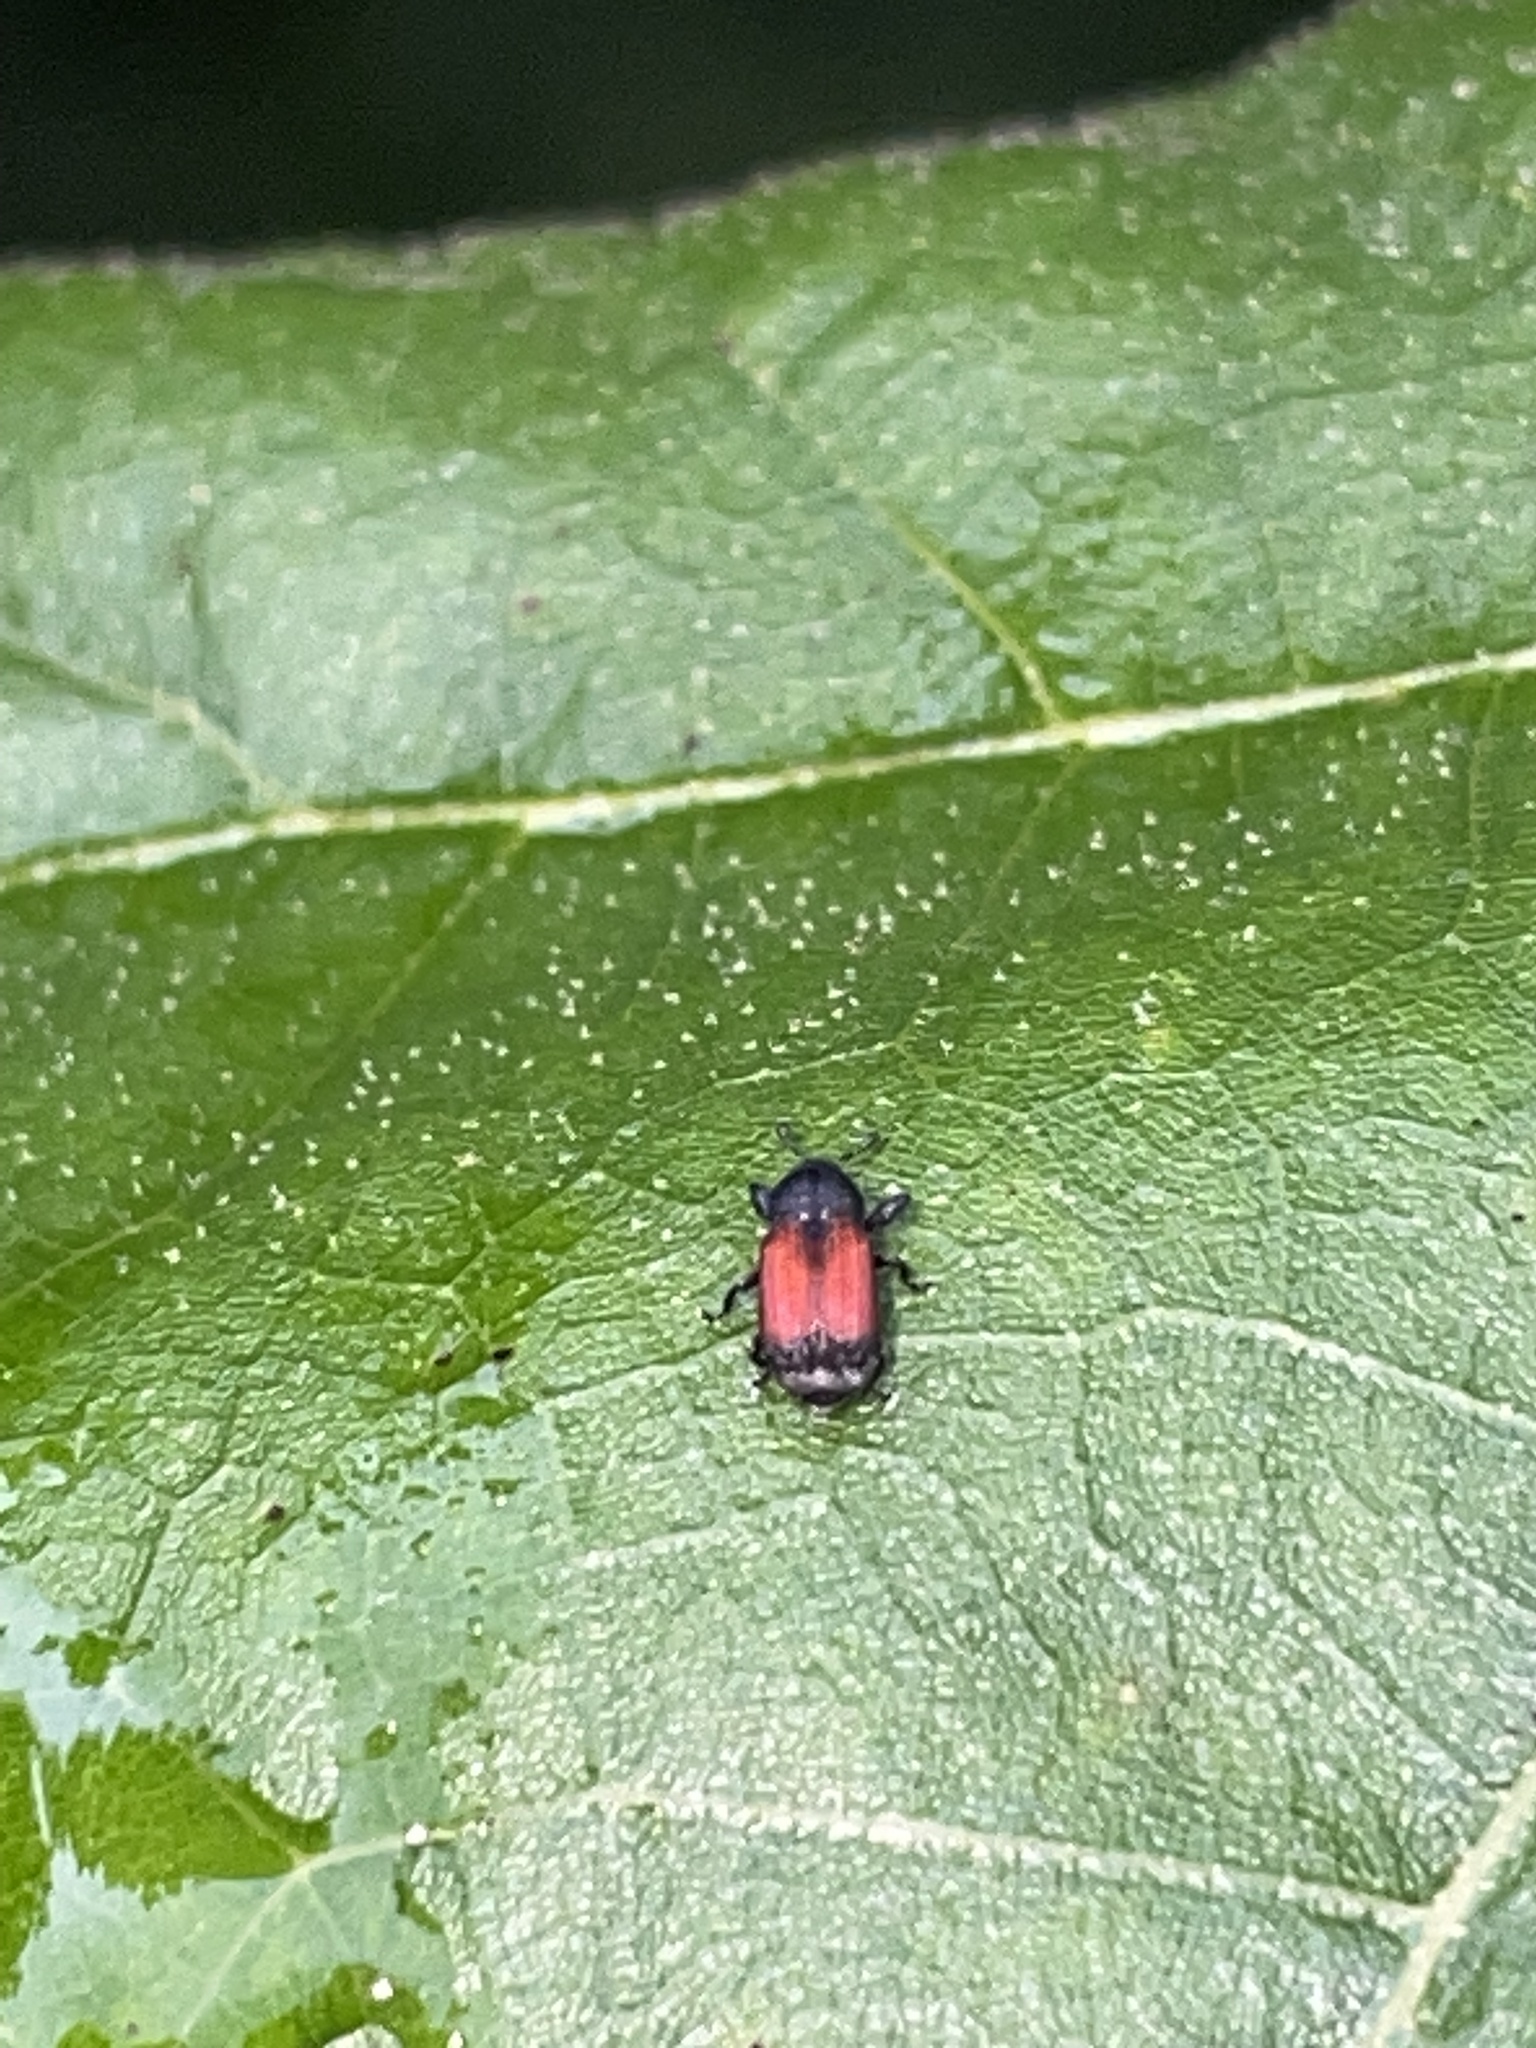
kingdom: Animalia
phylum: Arthropoda
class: Insecta
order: Coleoptera
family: Curculionidae
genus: Laemosaccus
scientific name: Laemosaccus nephele
